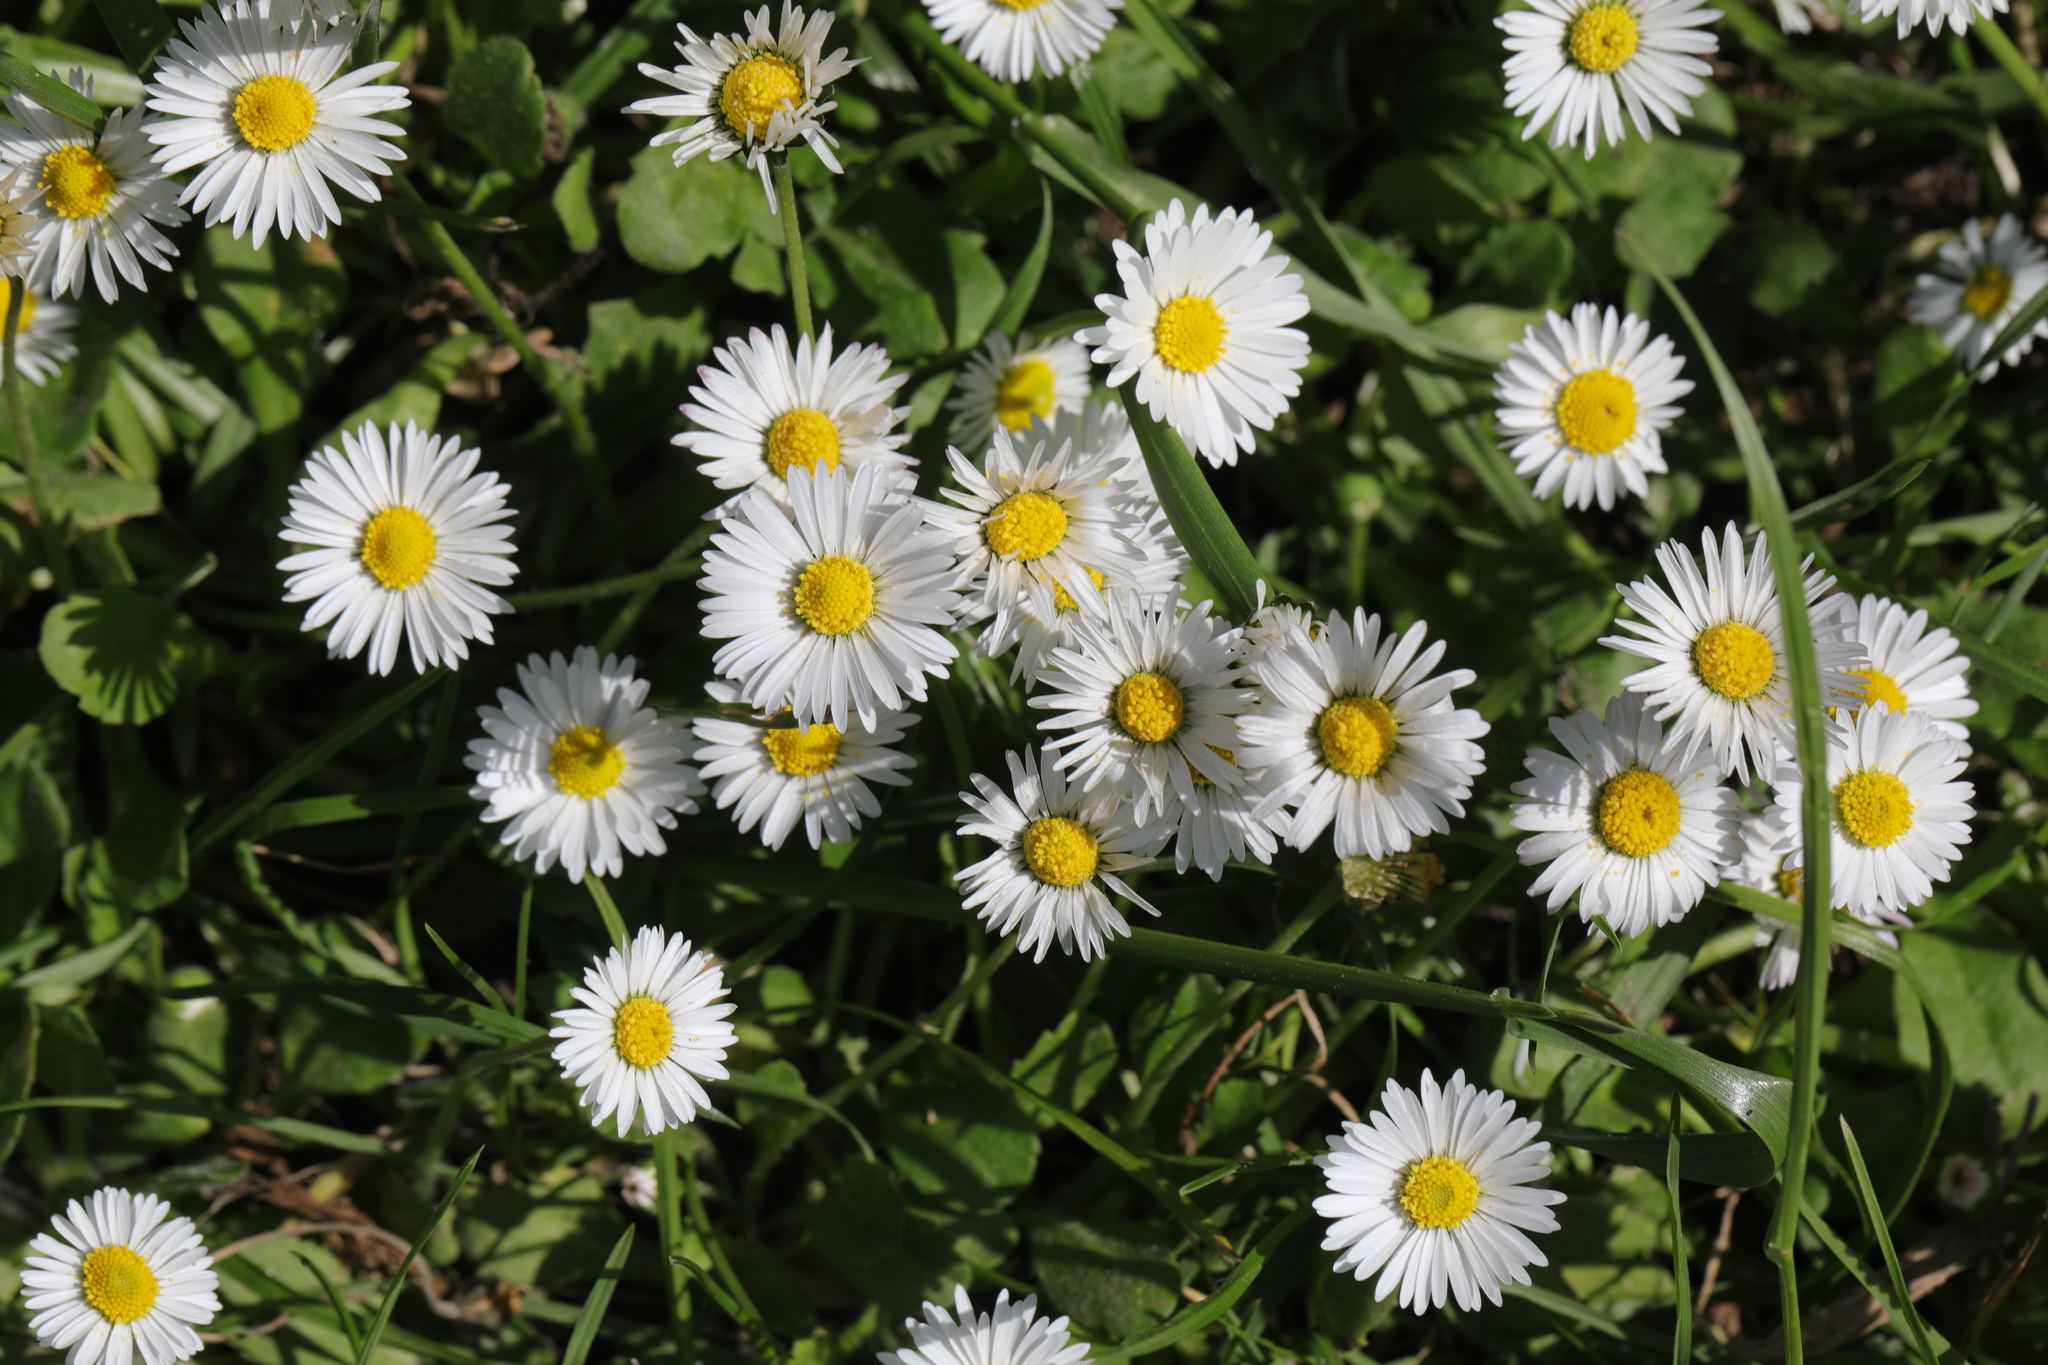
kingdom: Plantae
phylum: Tracheophyta
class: Magnoliopsida
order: Asterales
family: Asteraceae
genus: Bellis
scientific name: Bellis perennis
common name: Lawndaisy
